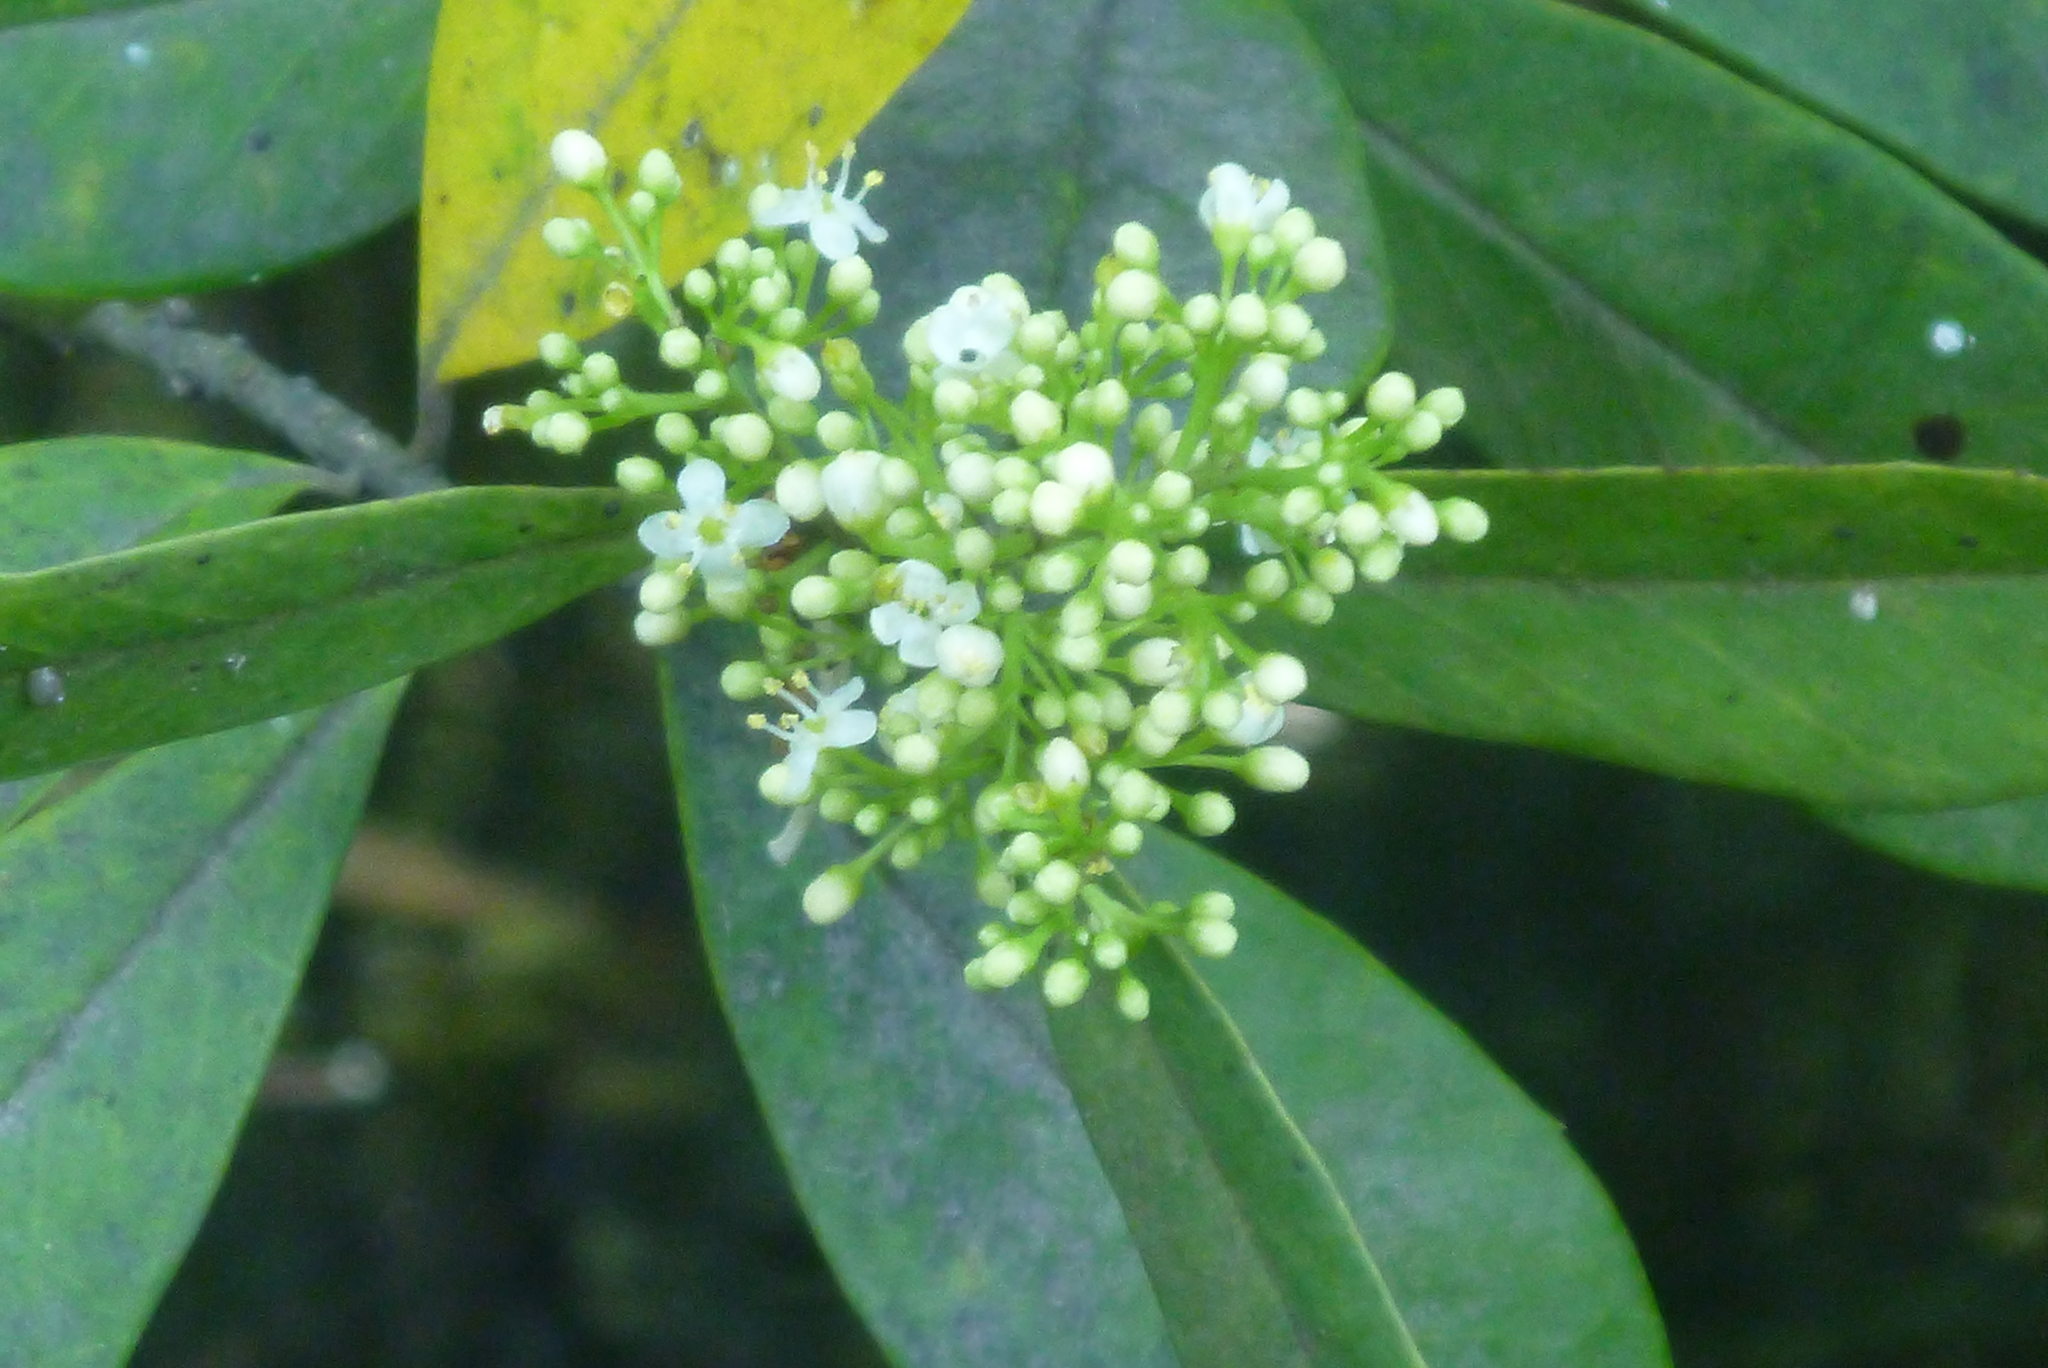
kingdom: Plantae
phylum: Tracheophyta
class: Magnoliopsida
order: Aquifoliales
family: Aquifoliaceae
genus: Ilex
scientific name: Ilex cassine
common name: Dahoon
